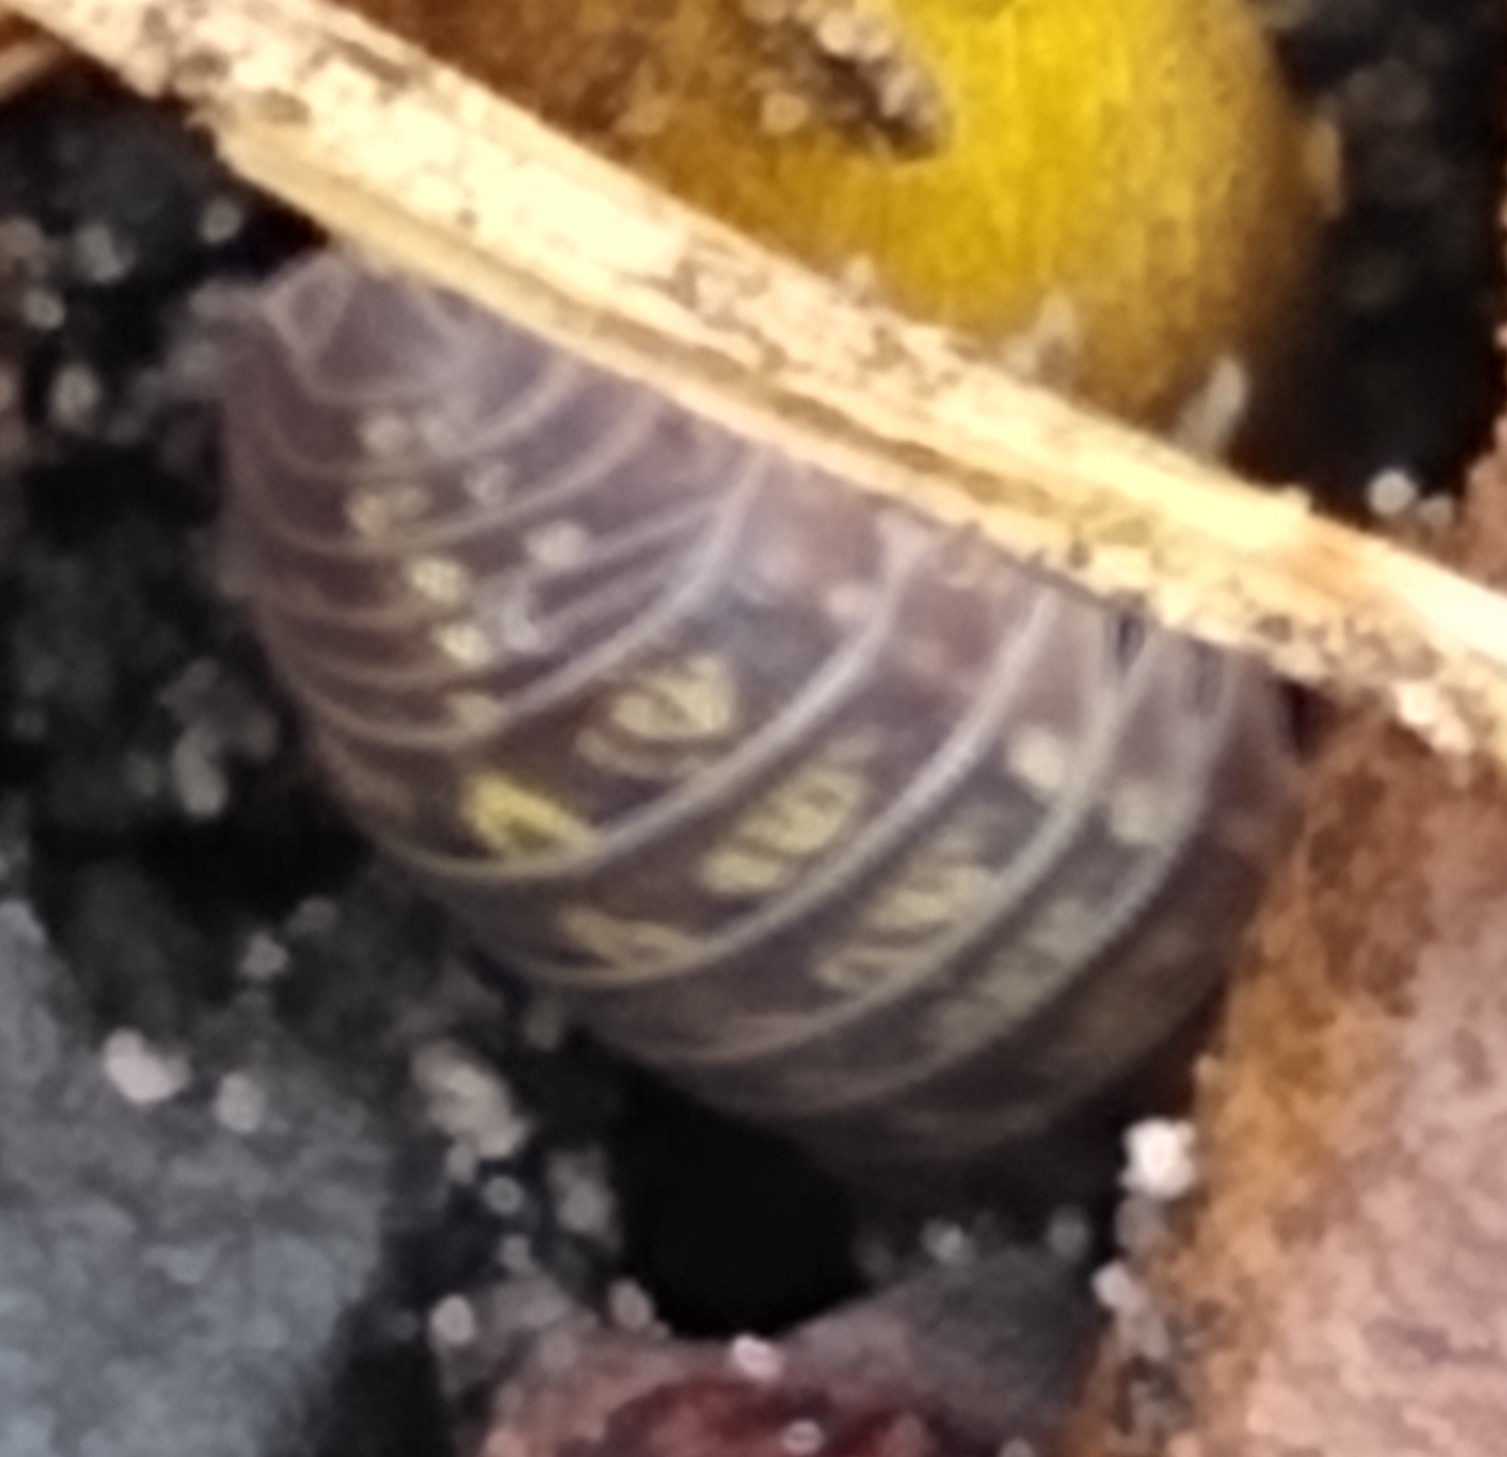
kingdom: Animalia
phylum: Arthropoda
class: Malacostraca
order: Isopoda
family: Armadillidiidae
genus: Armadillidium
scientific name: Armadillidium vulgare
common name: Common pill woodlouse
